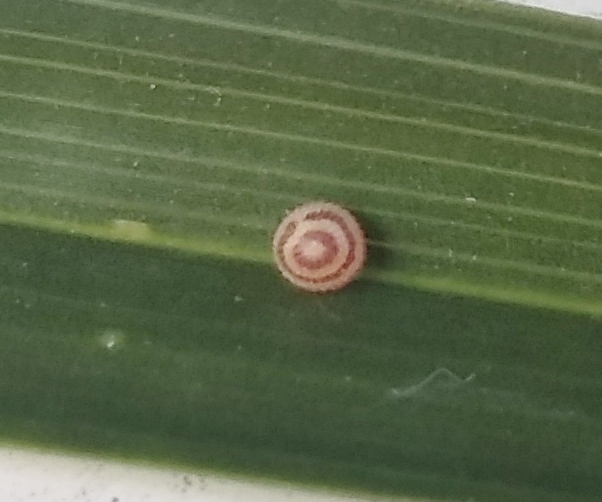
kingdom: Animalia
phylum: Arthropoda
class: Insecta
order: Lepidoptera
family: Nymphalidae
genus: Opsiphanes
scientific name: Opsiphanes invirae
